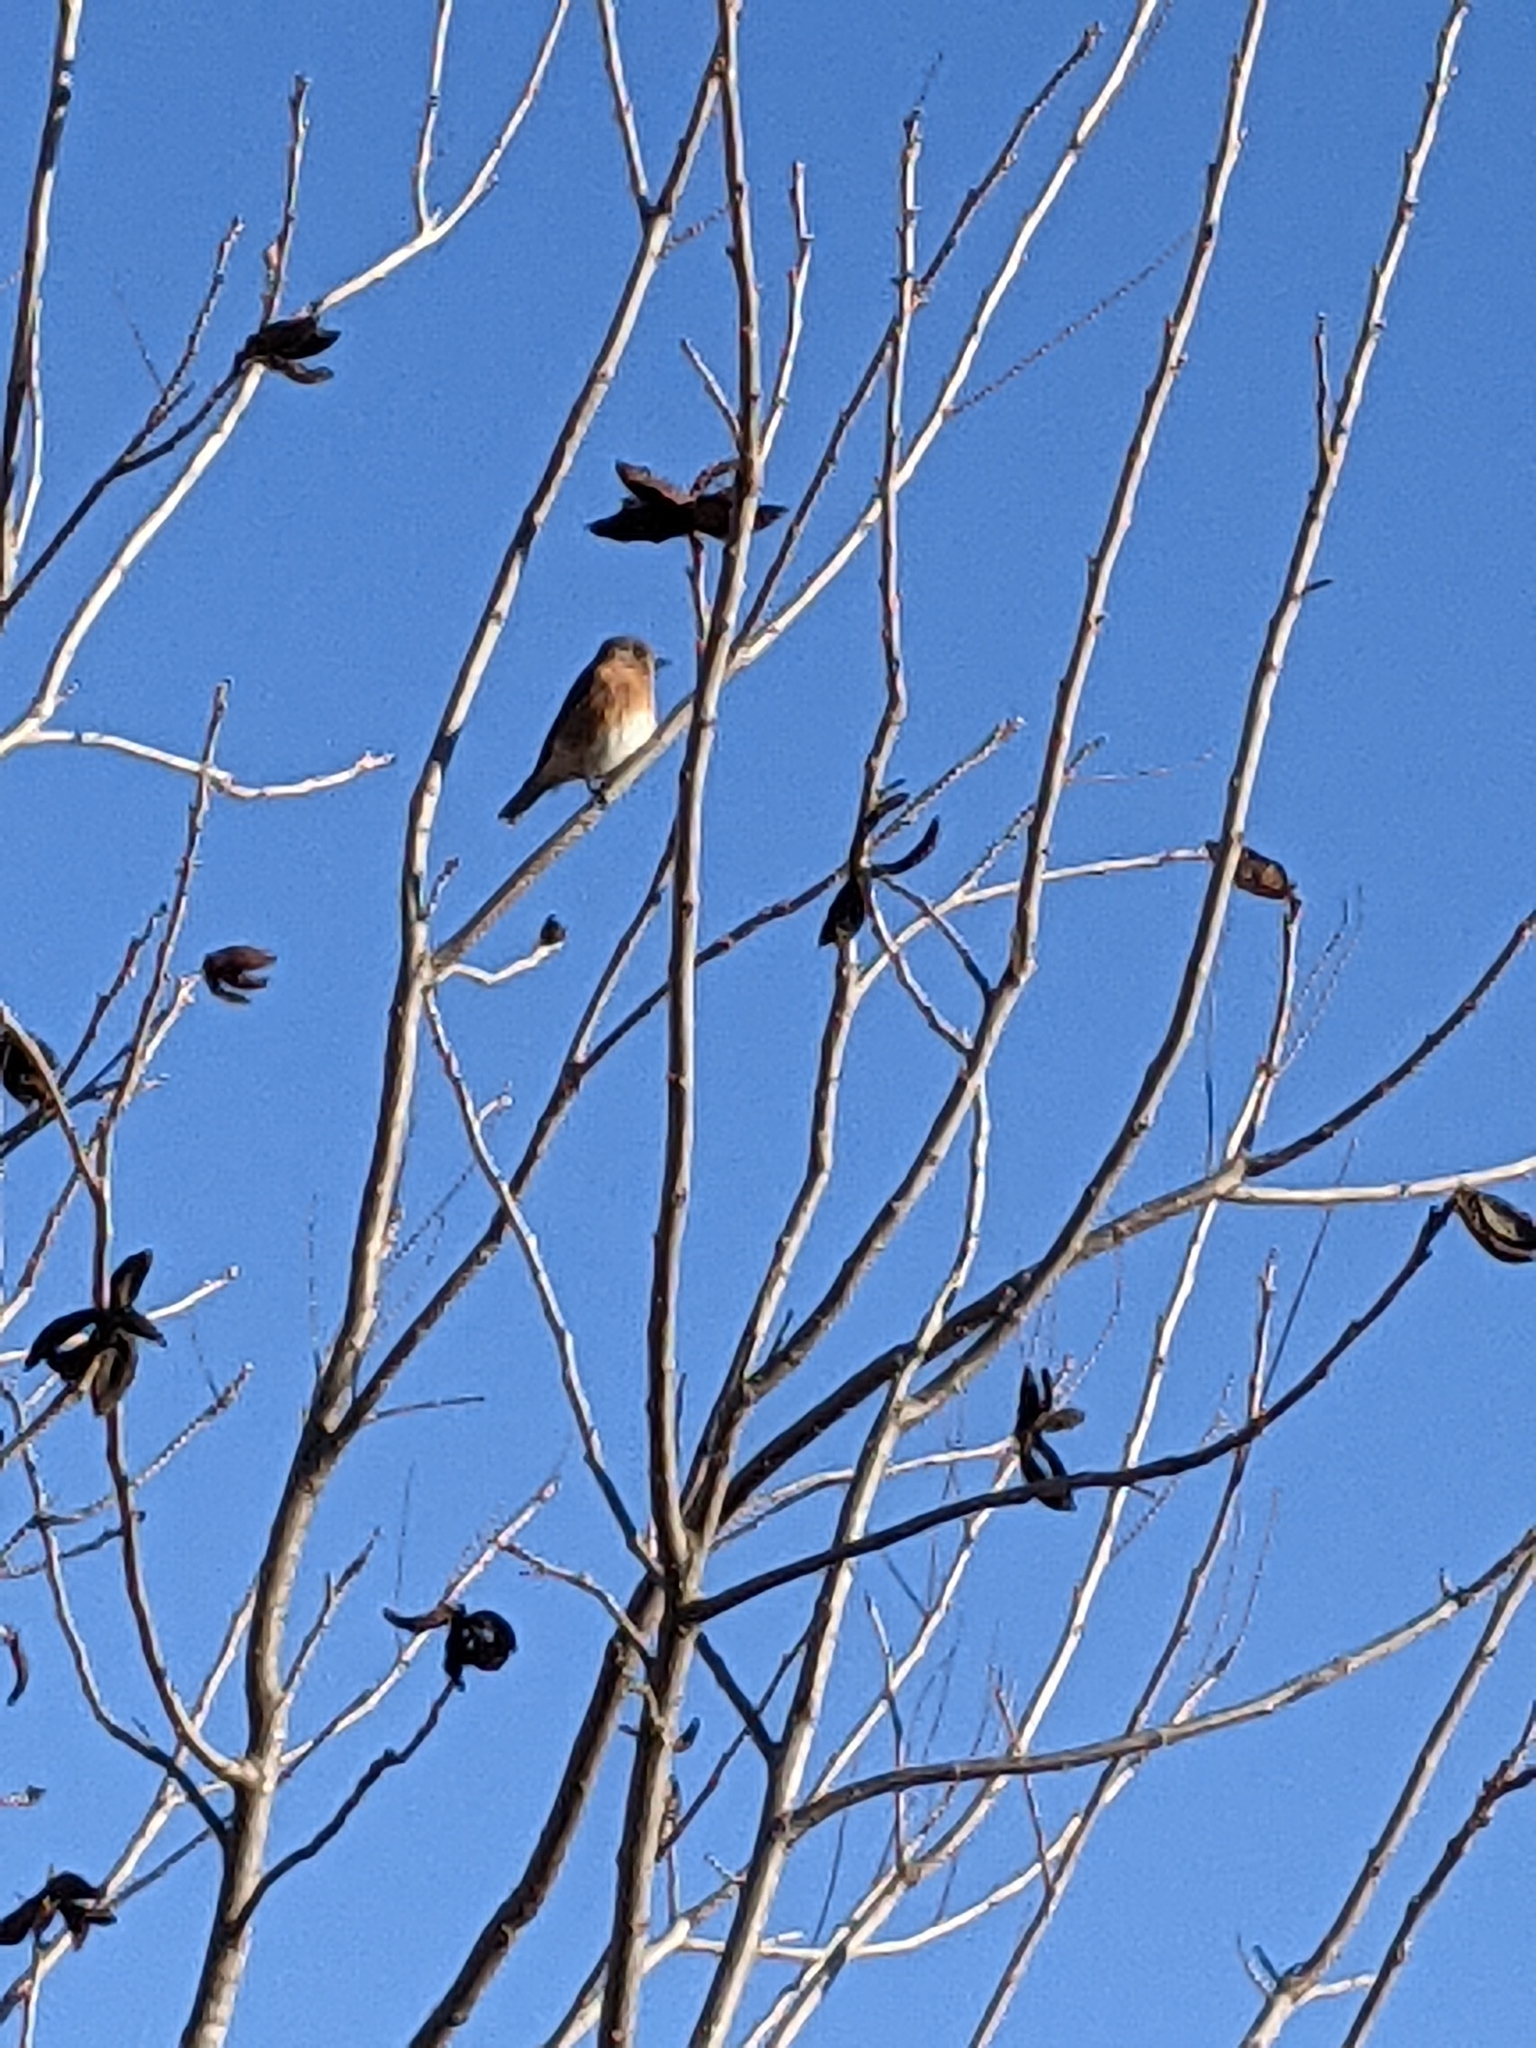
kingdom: Animalia
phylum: Chordata
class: Aves
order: Passeriformes
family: Turdidae
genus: Sialia
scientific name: Sialia sialis
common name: Eastern bluebird
